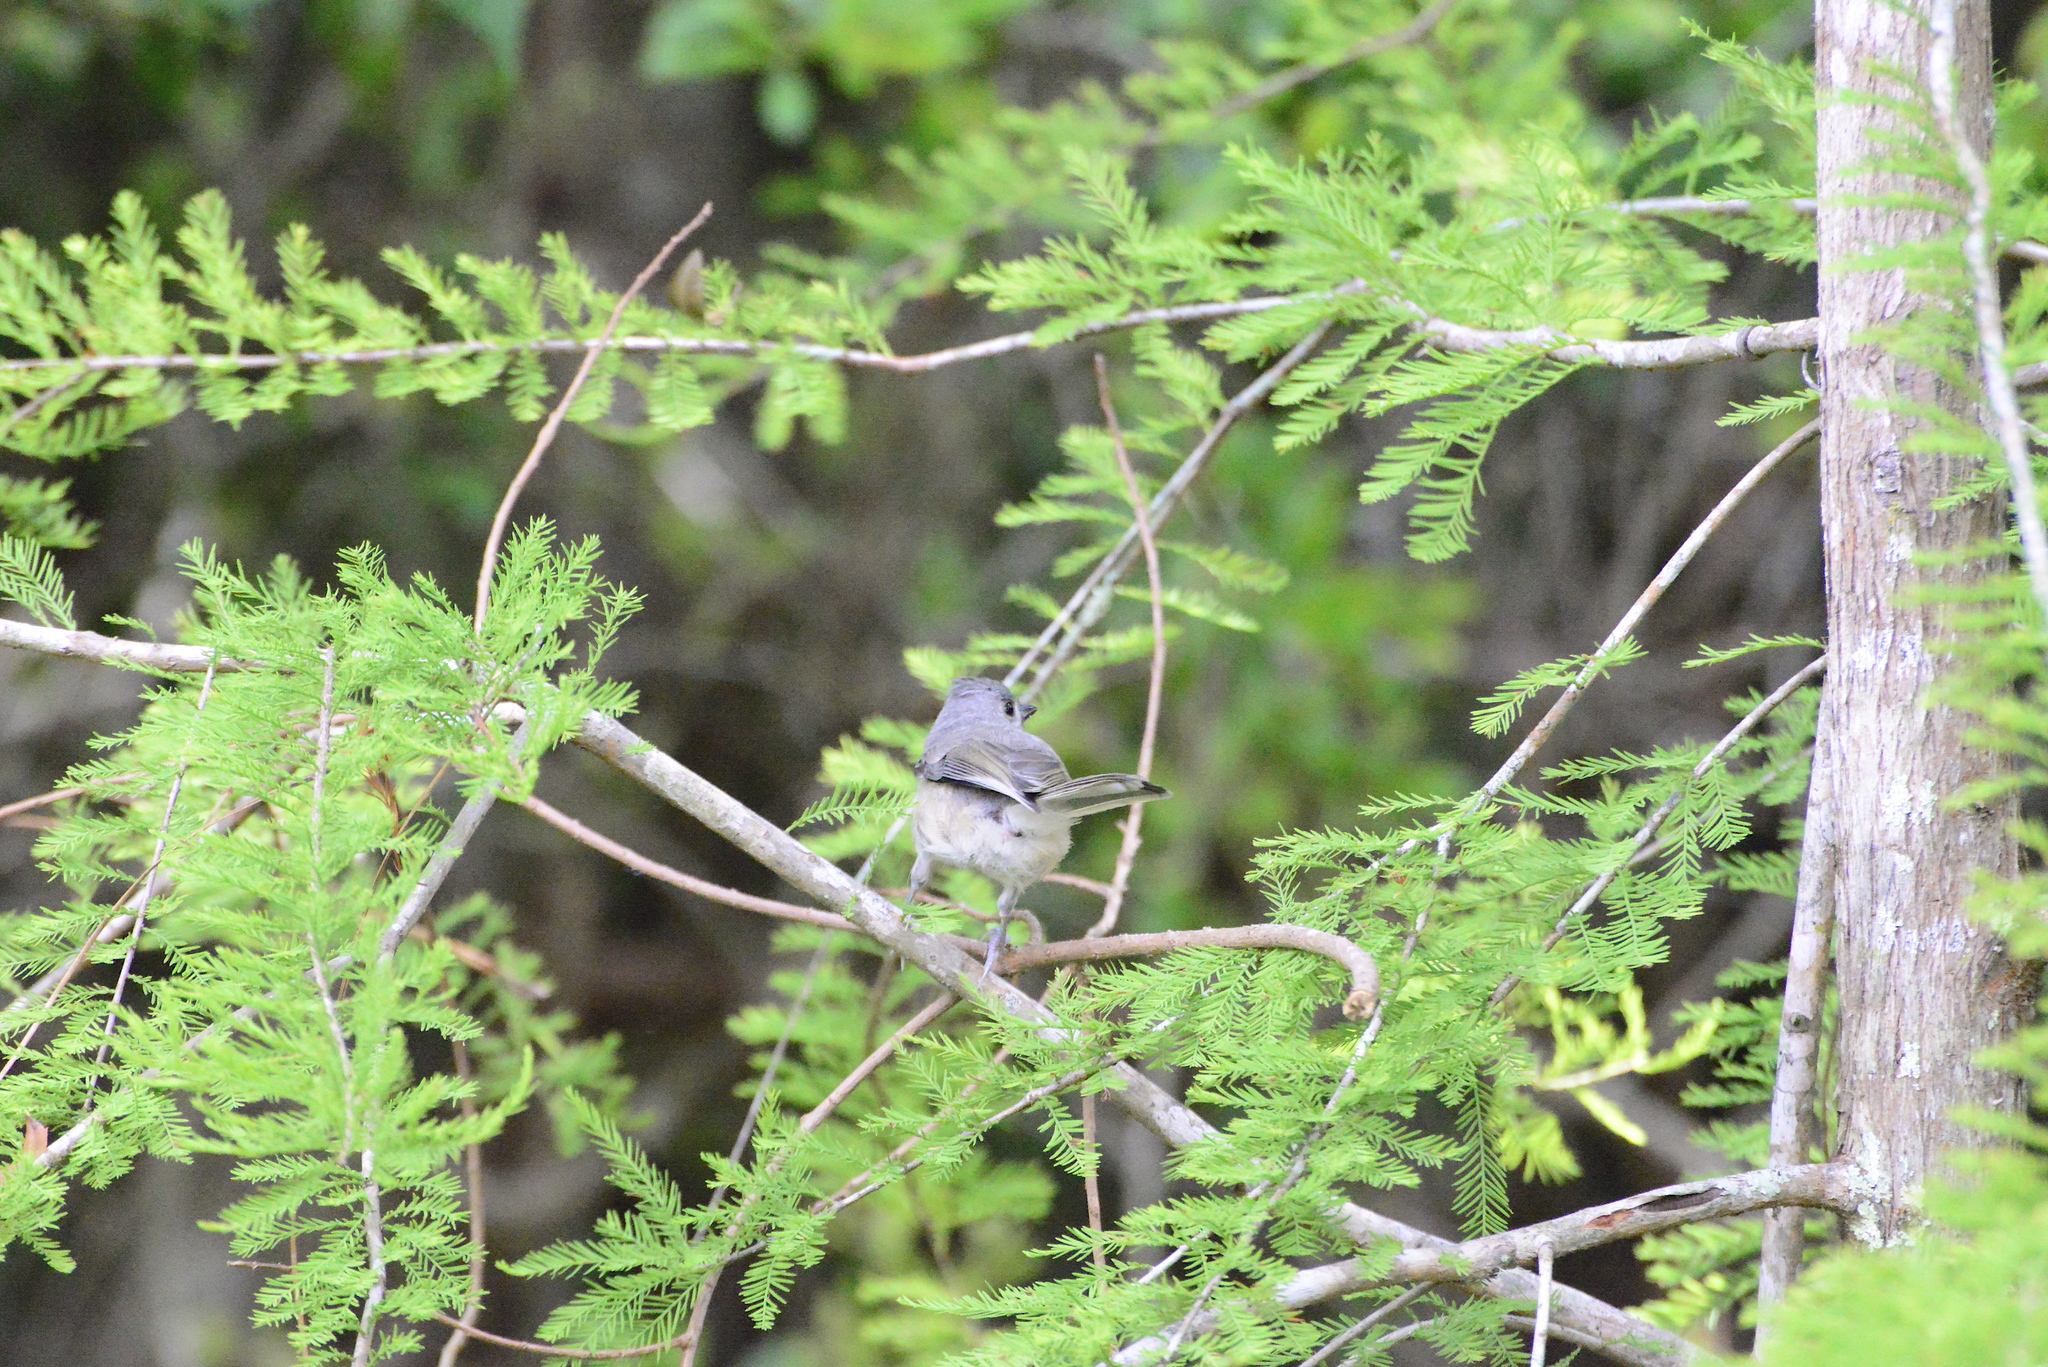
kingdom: Animalia
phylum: Chordata
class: Aves
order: Passeriformes
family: Paridae
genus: Baeolophus
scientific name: Baeolophus bicolor
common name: Tufted titmouse
